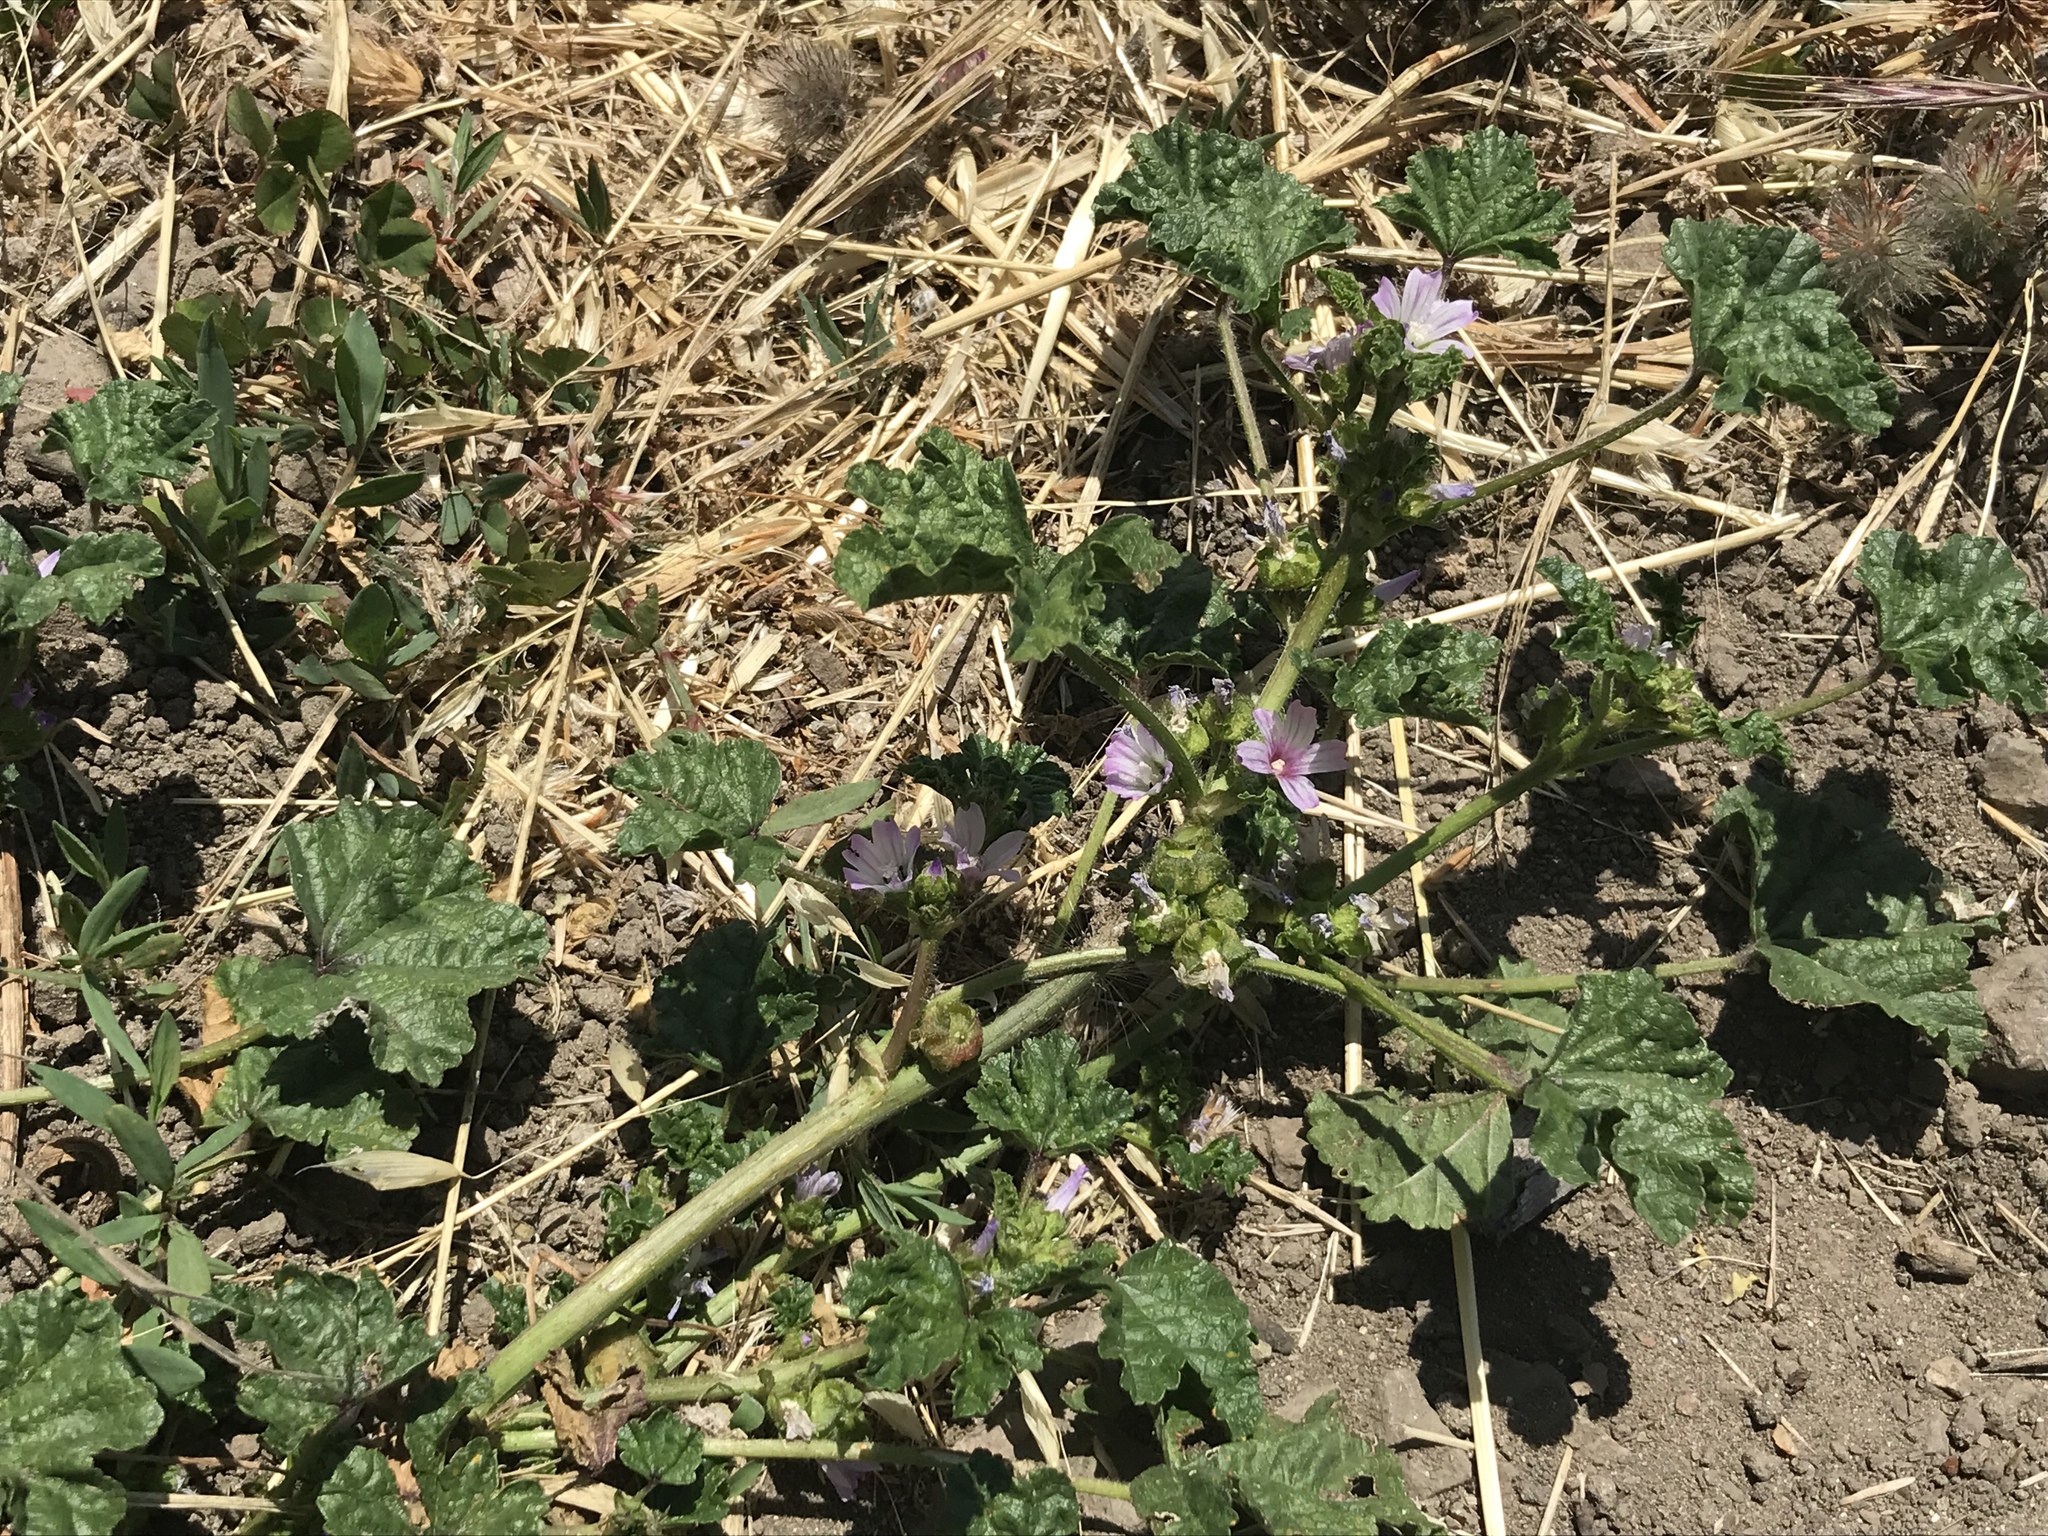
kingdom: Plantae
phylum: Tracheophyta
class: Magnoliopsida
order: Malvales
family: Malvaceae
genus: Malva
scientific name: Malva nicaeensis
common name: French mallow
